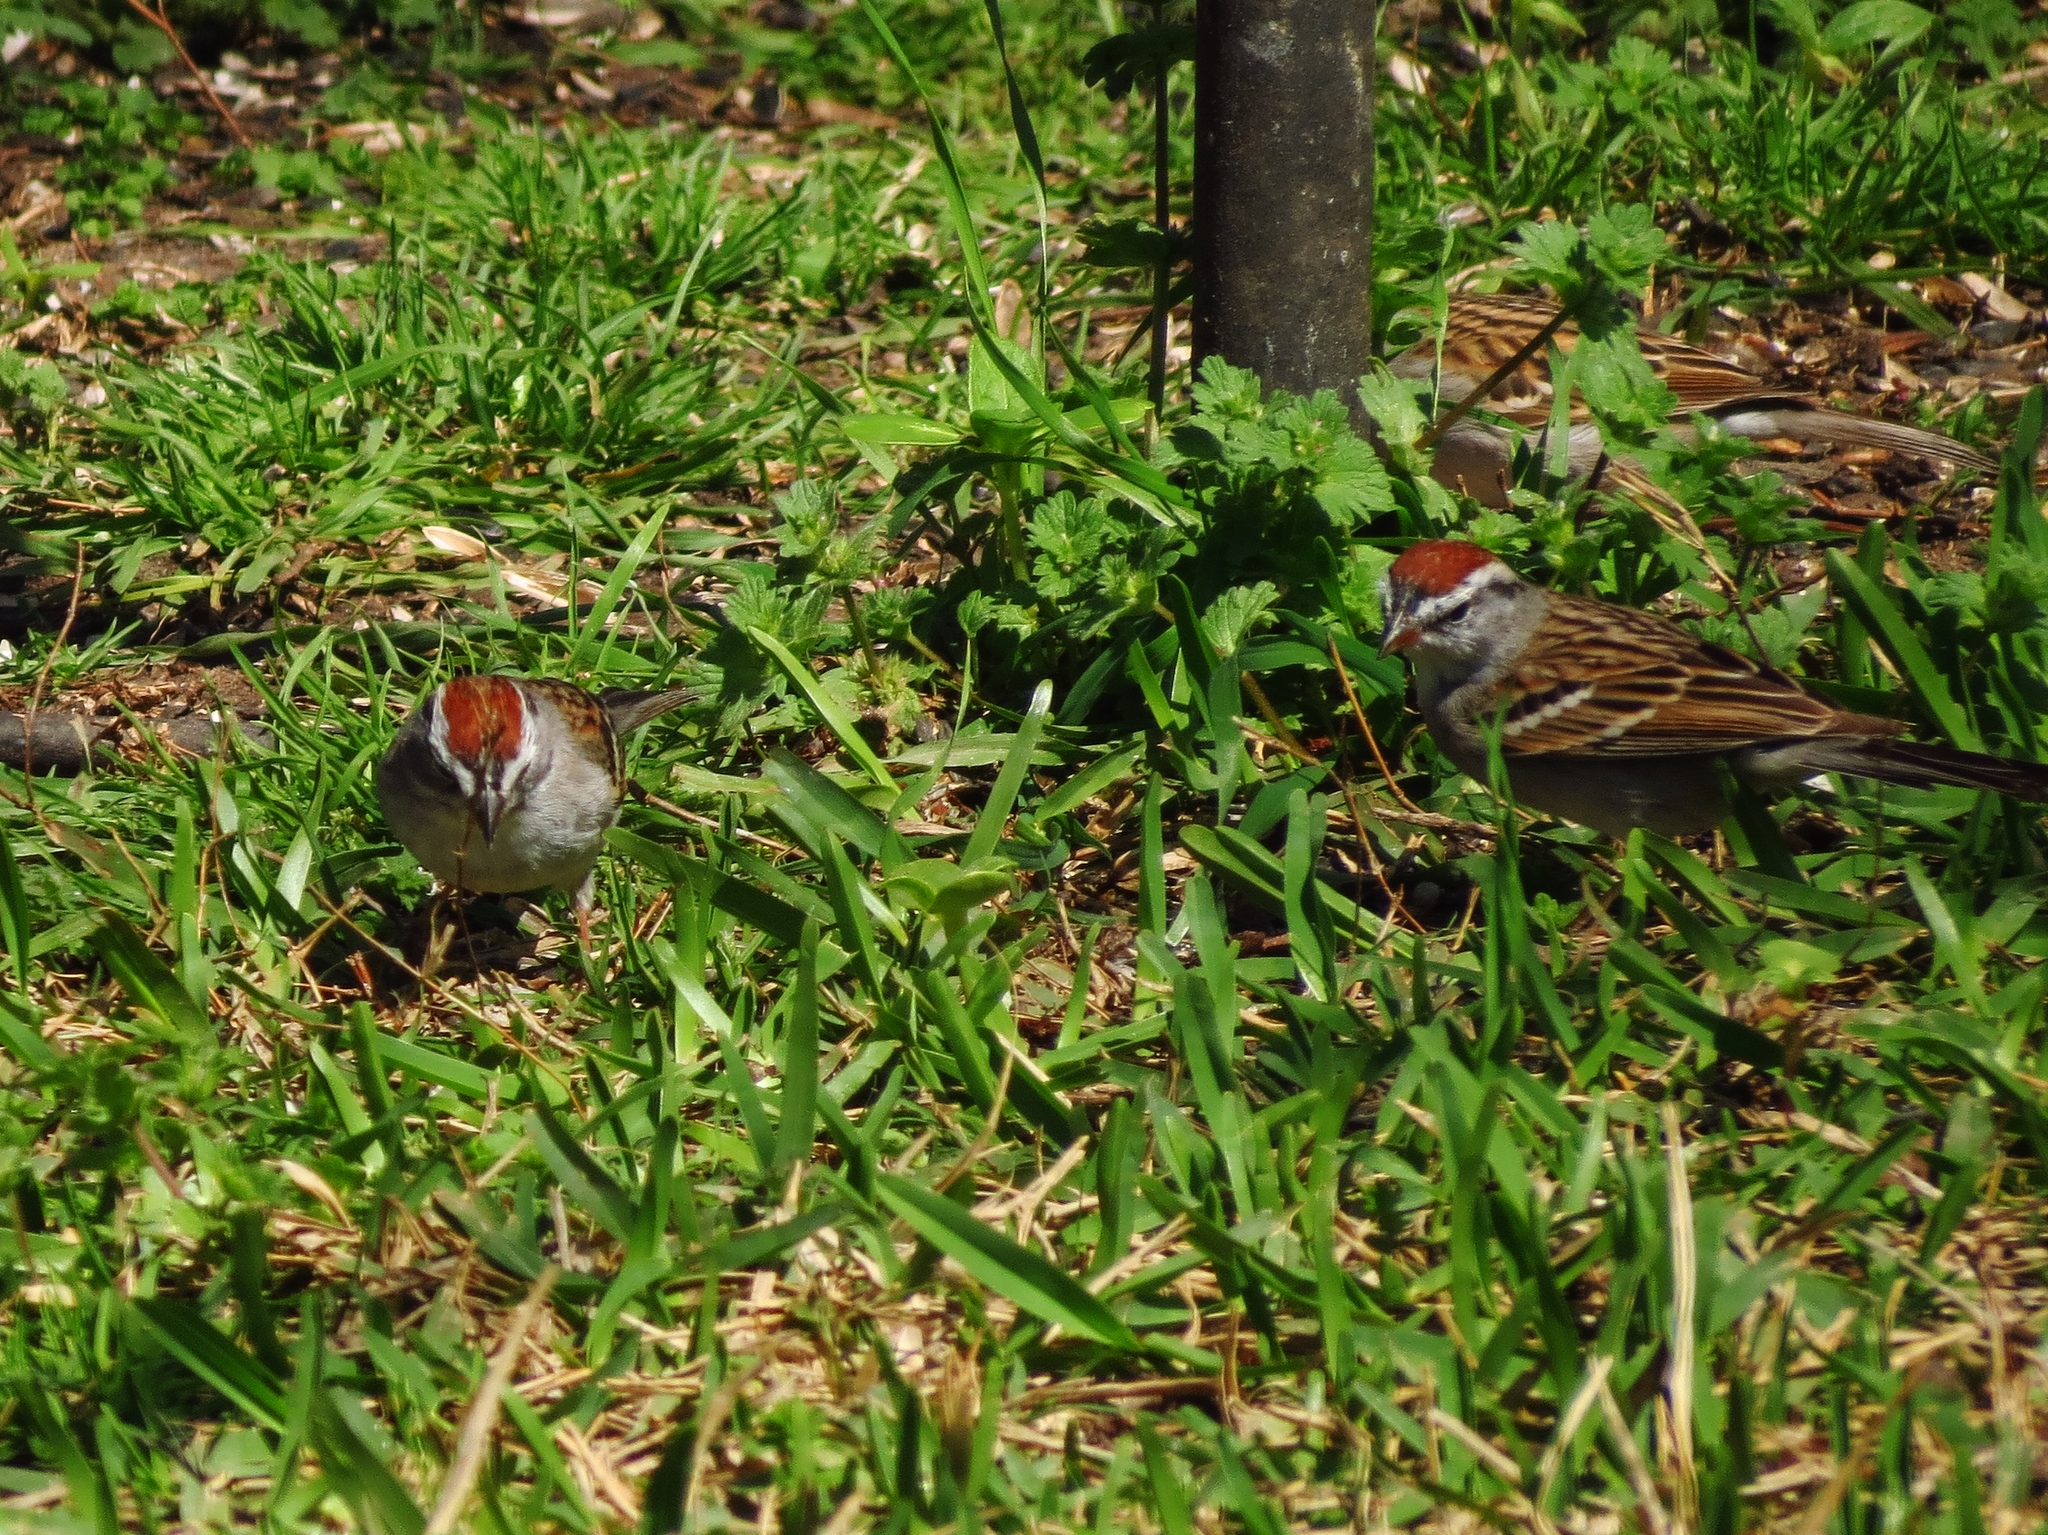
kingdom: Animalia
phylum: Chordata
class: Aves
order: Passeriformes
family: Passerellidae
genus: Spizella
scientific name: Spizella passerina
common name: Chipping sparrow
